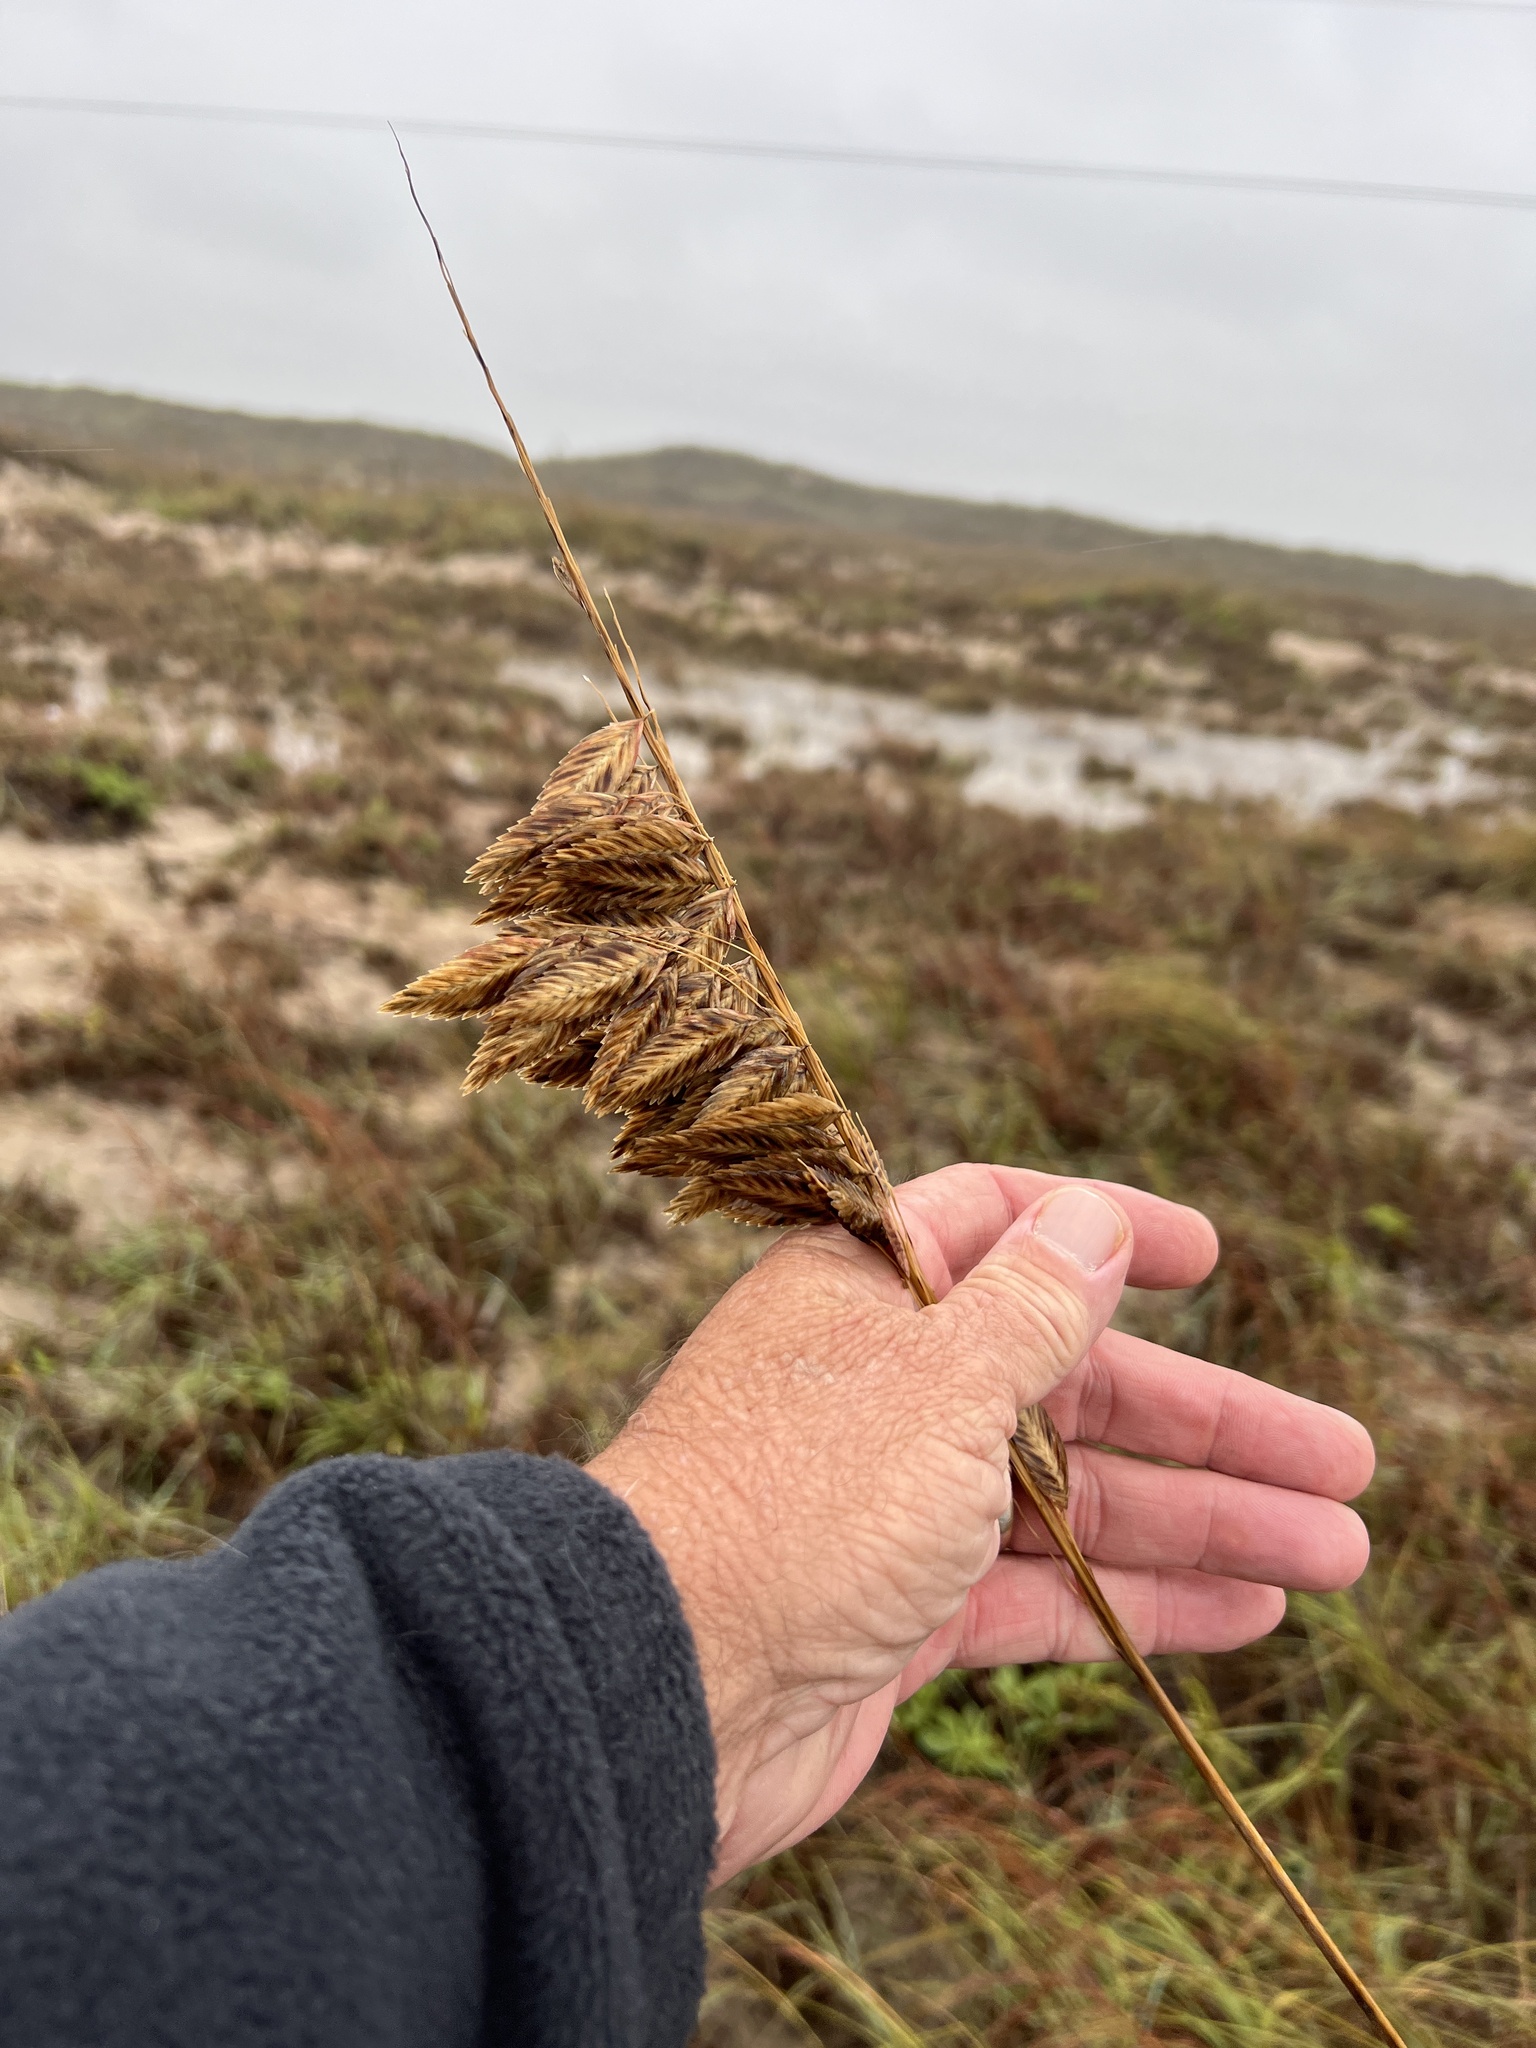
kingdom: Plantae
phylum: Tracheophyta
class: Liliopsida
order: Poales
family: Poaceae
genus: Uniola
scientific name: Uniola paniculata
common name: Seaside-oats
